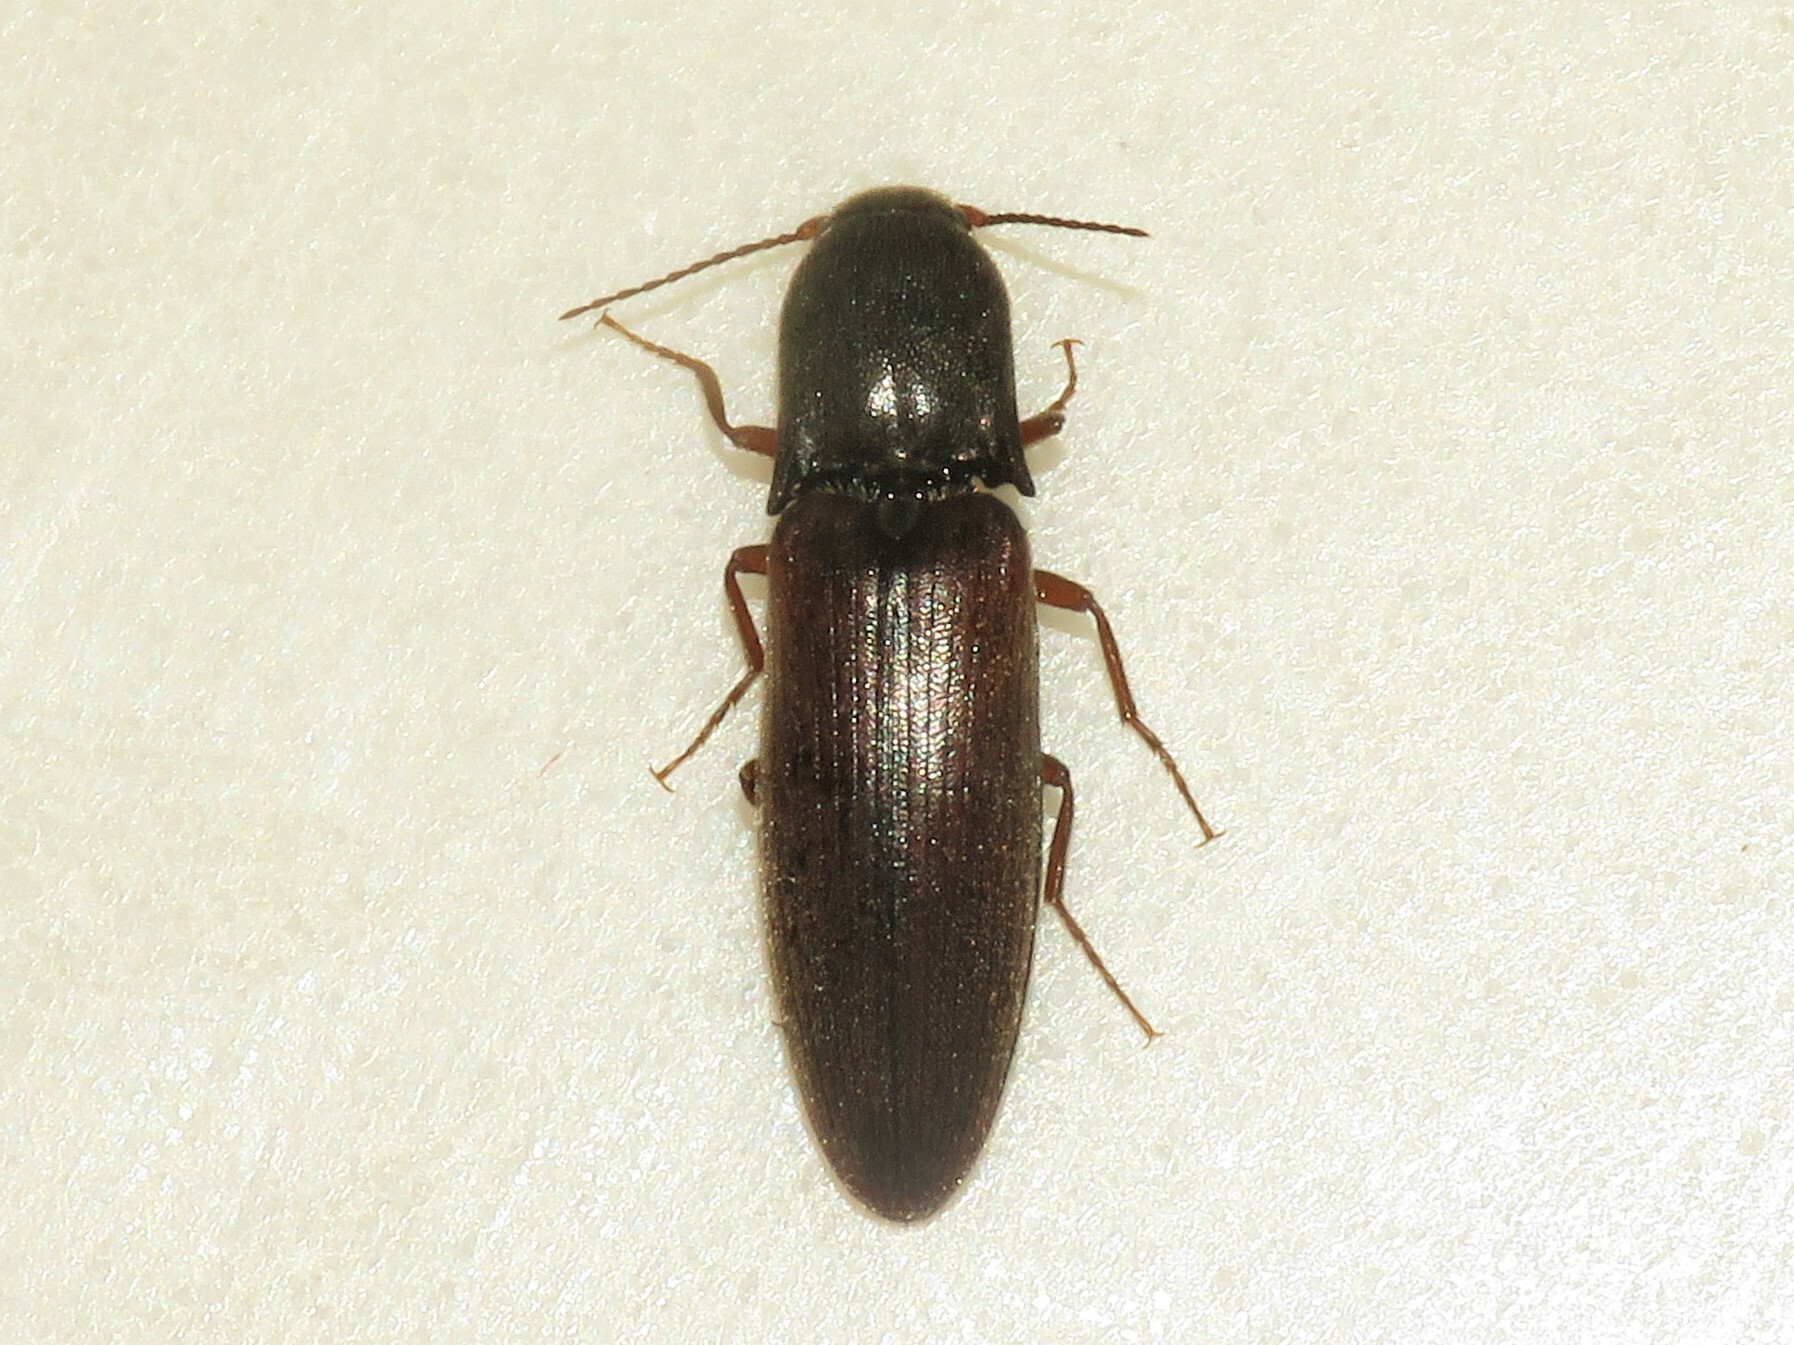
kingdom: Animalia
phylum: Arthropoda
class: Insecta
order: Coleoptera
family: Elateridae
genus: Agriotes
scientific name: Agriotes ferrugineipennis
